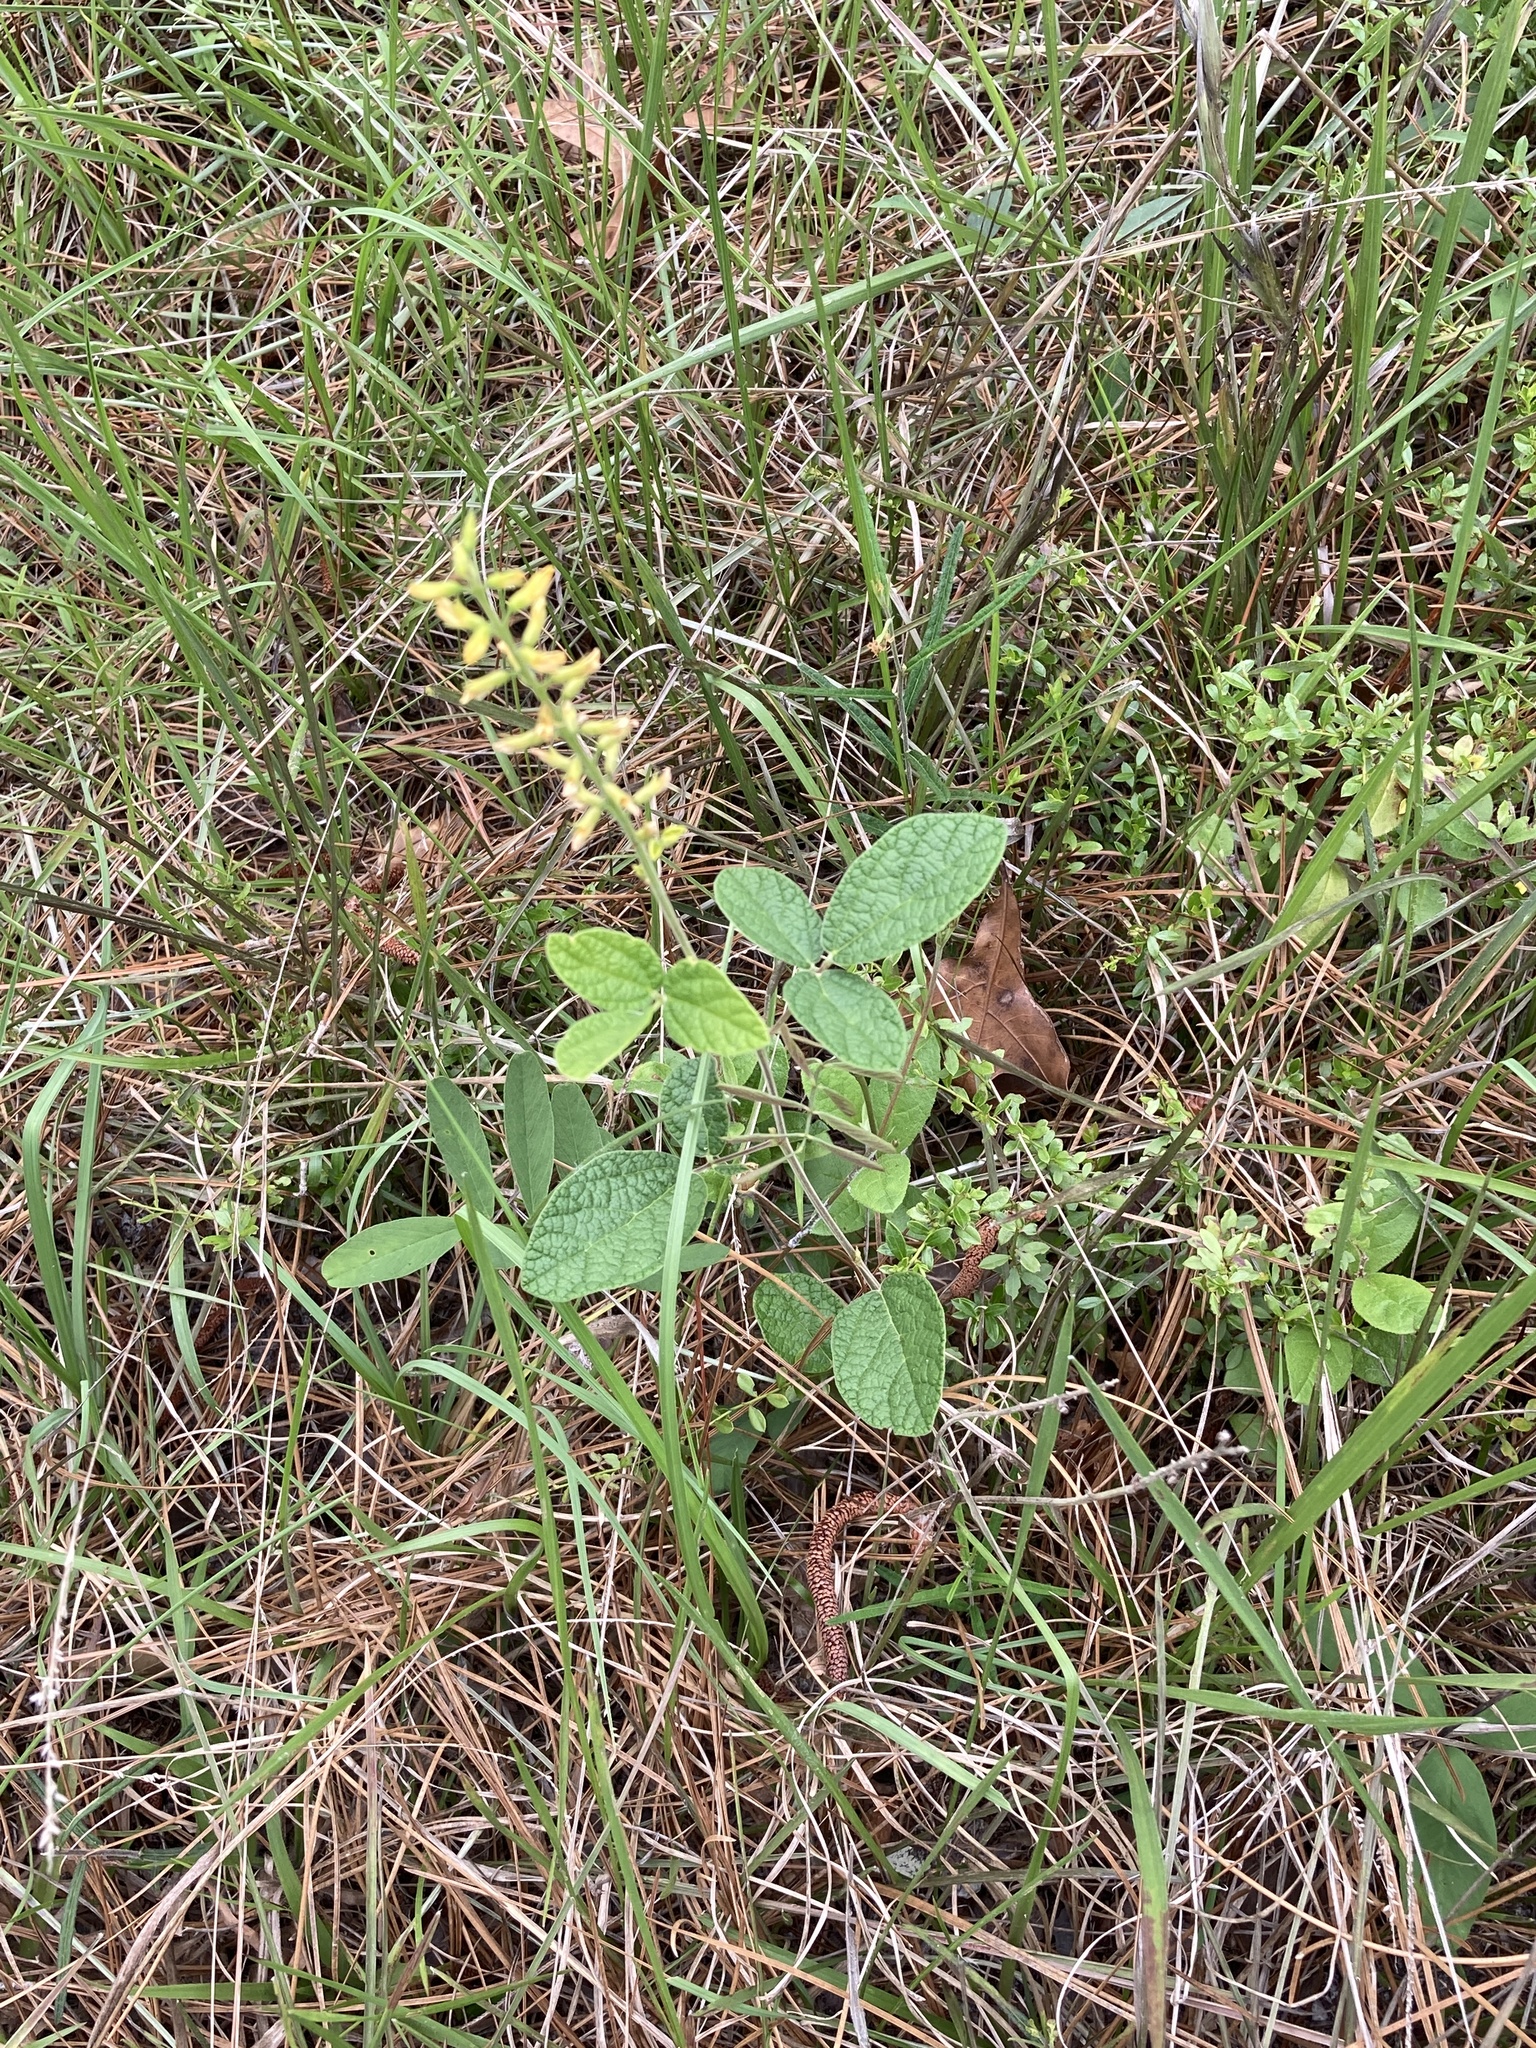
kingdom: Plantae
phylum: Tracheophyta
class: Magnoliopsida
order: Fabales
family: Fabaceae
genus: Rhynchosia
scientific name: Rhynchosia tomentosa
